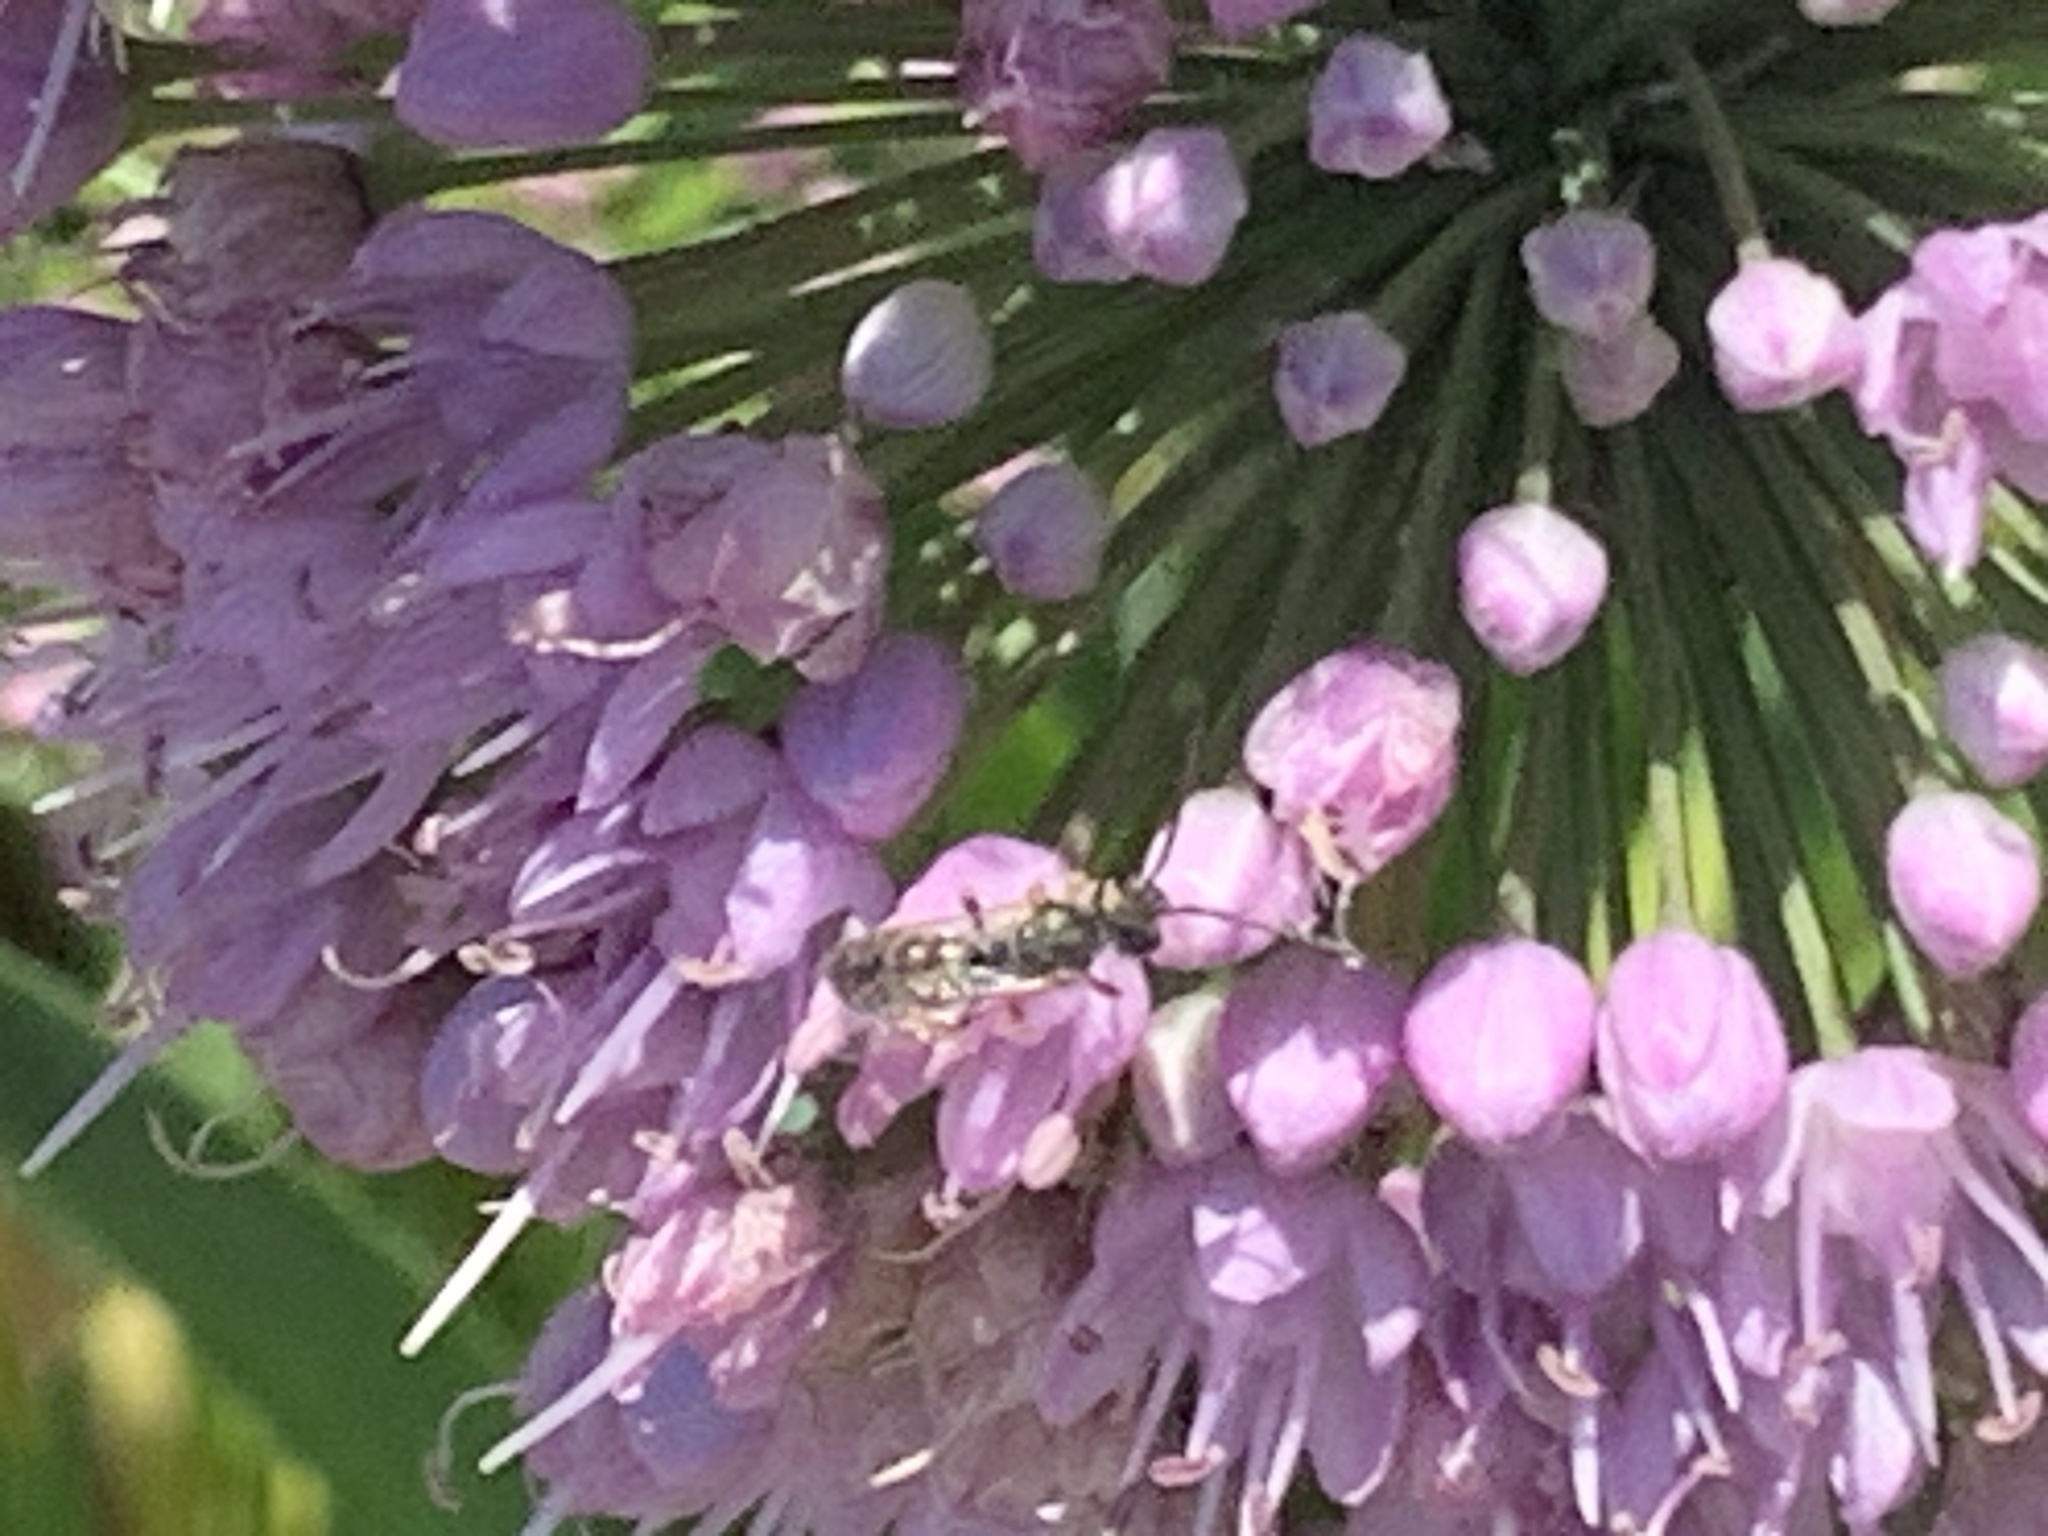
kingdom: Animalia
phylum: Arthropoda
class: Insecta
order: Hymenoptera
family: Halictidae
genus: Halictus
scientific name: Halictus confusus
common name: Southern bronze furrow bee
